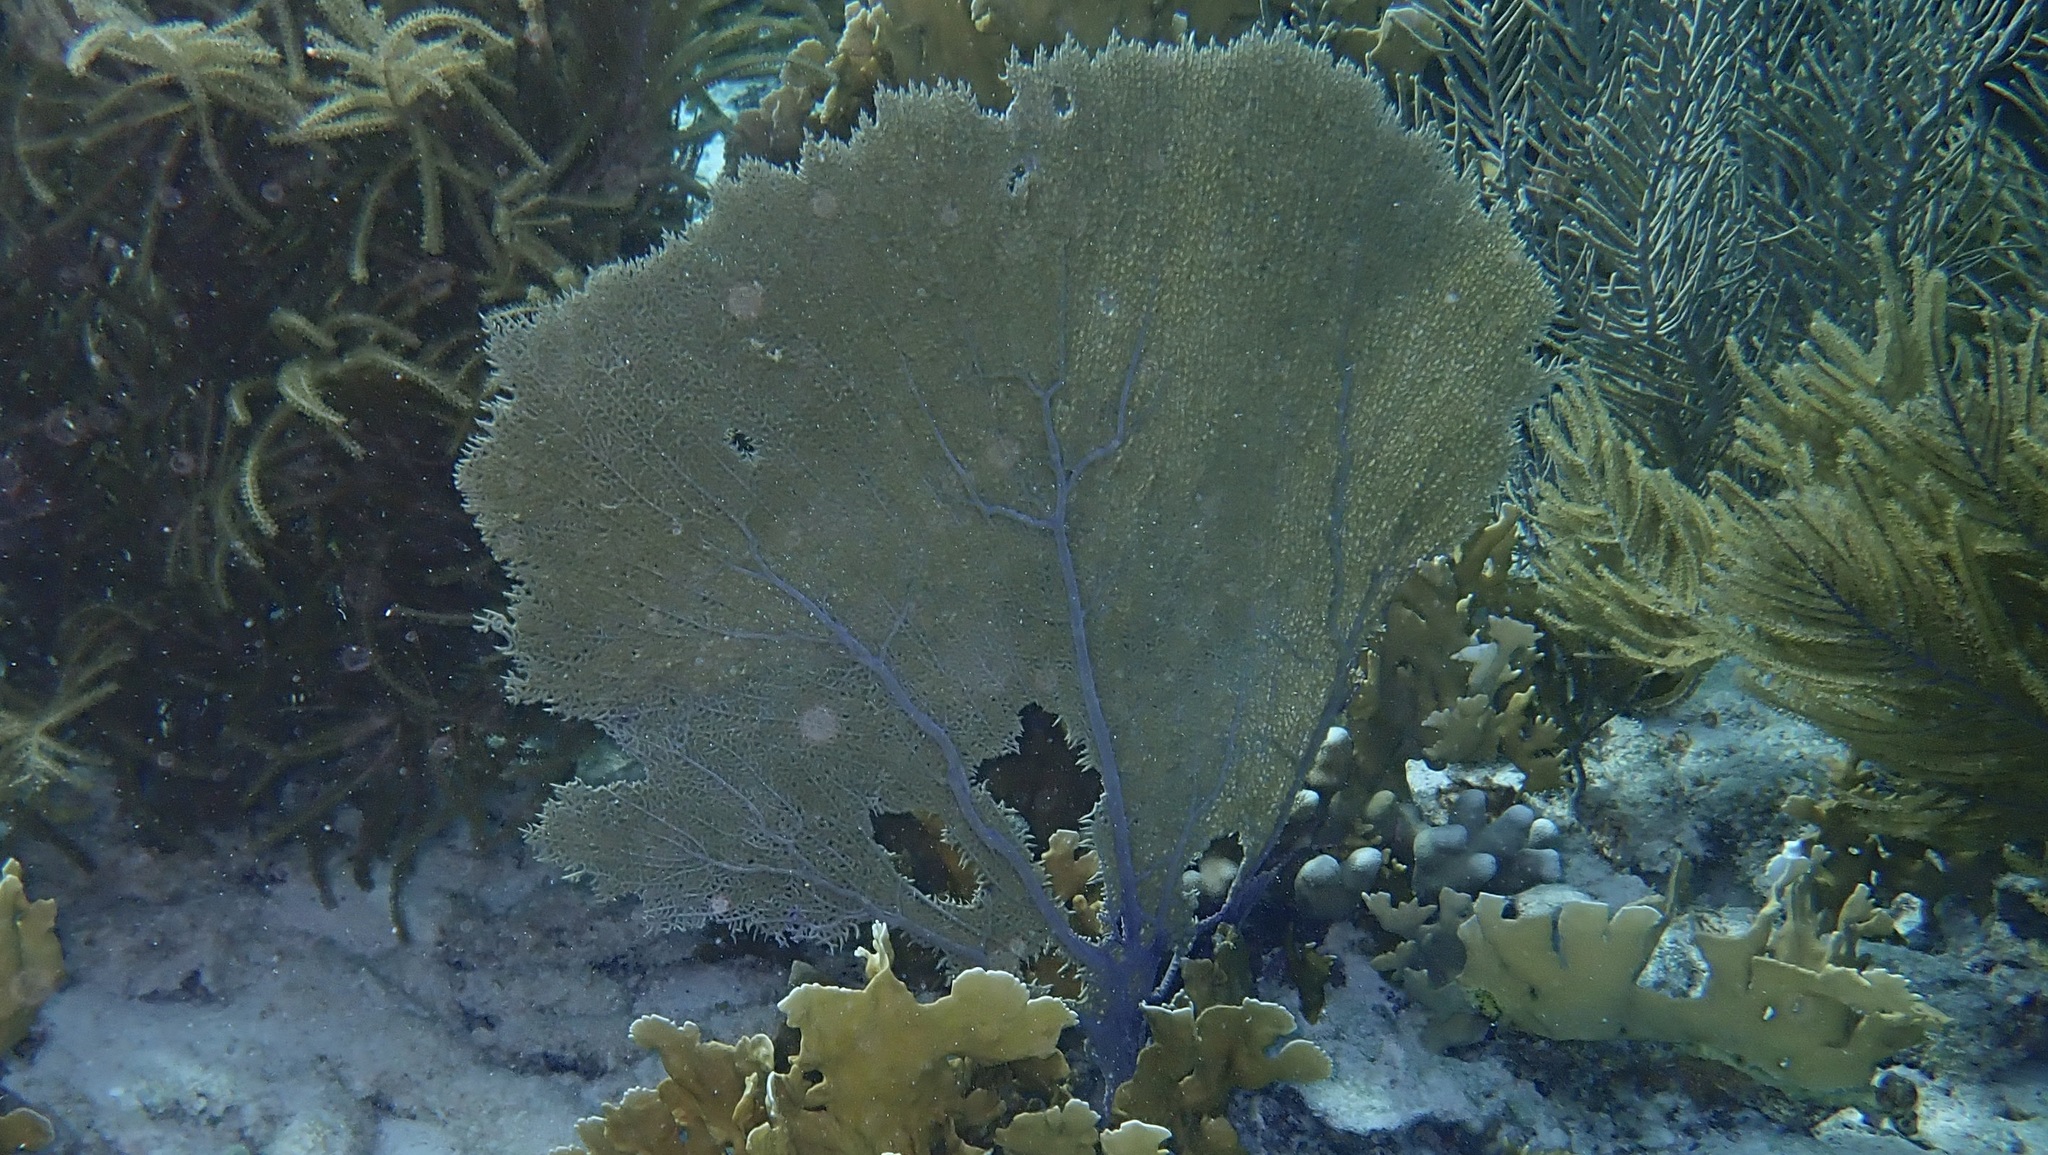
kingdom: Animalia
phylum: Cnidaria
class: Anthozoa
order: Malacalcyonacea
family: Gorgoniidae
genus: Gorgonia
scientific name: Gorgonia ventalina
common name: Common sea fan
